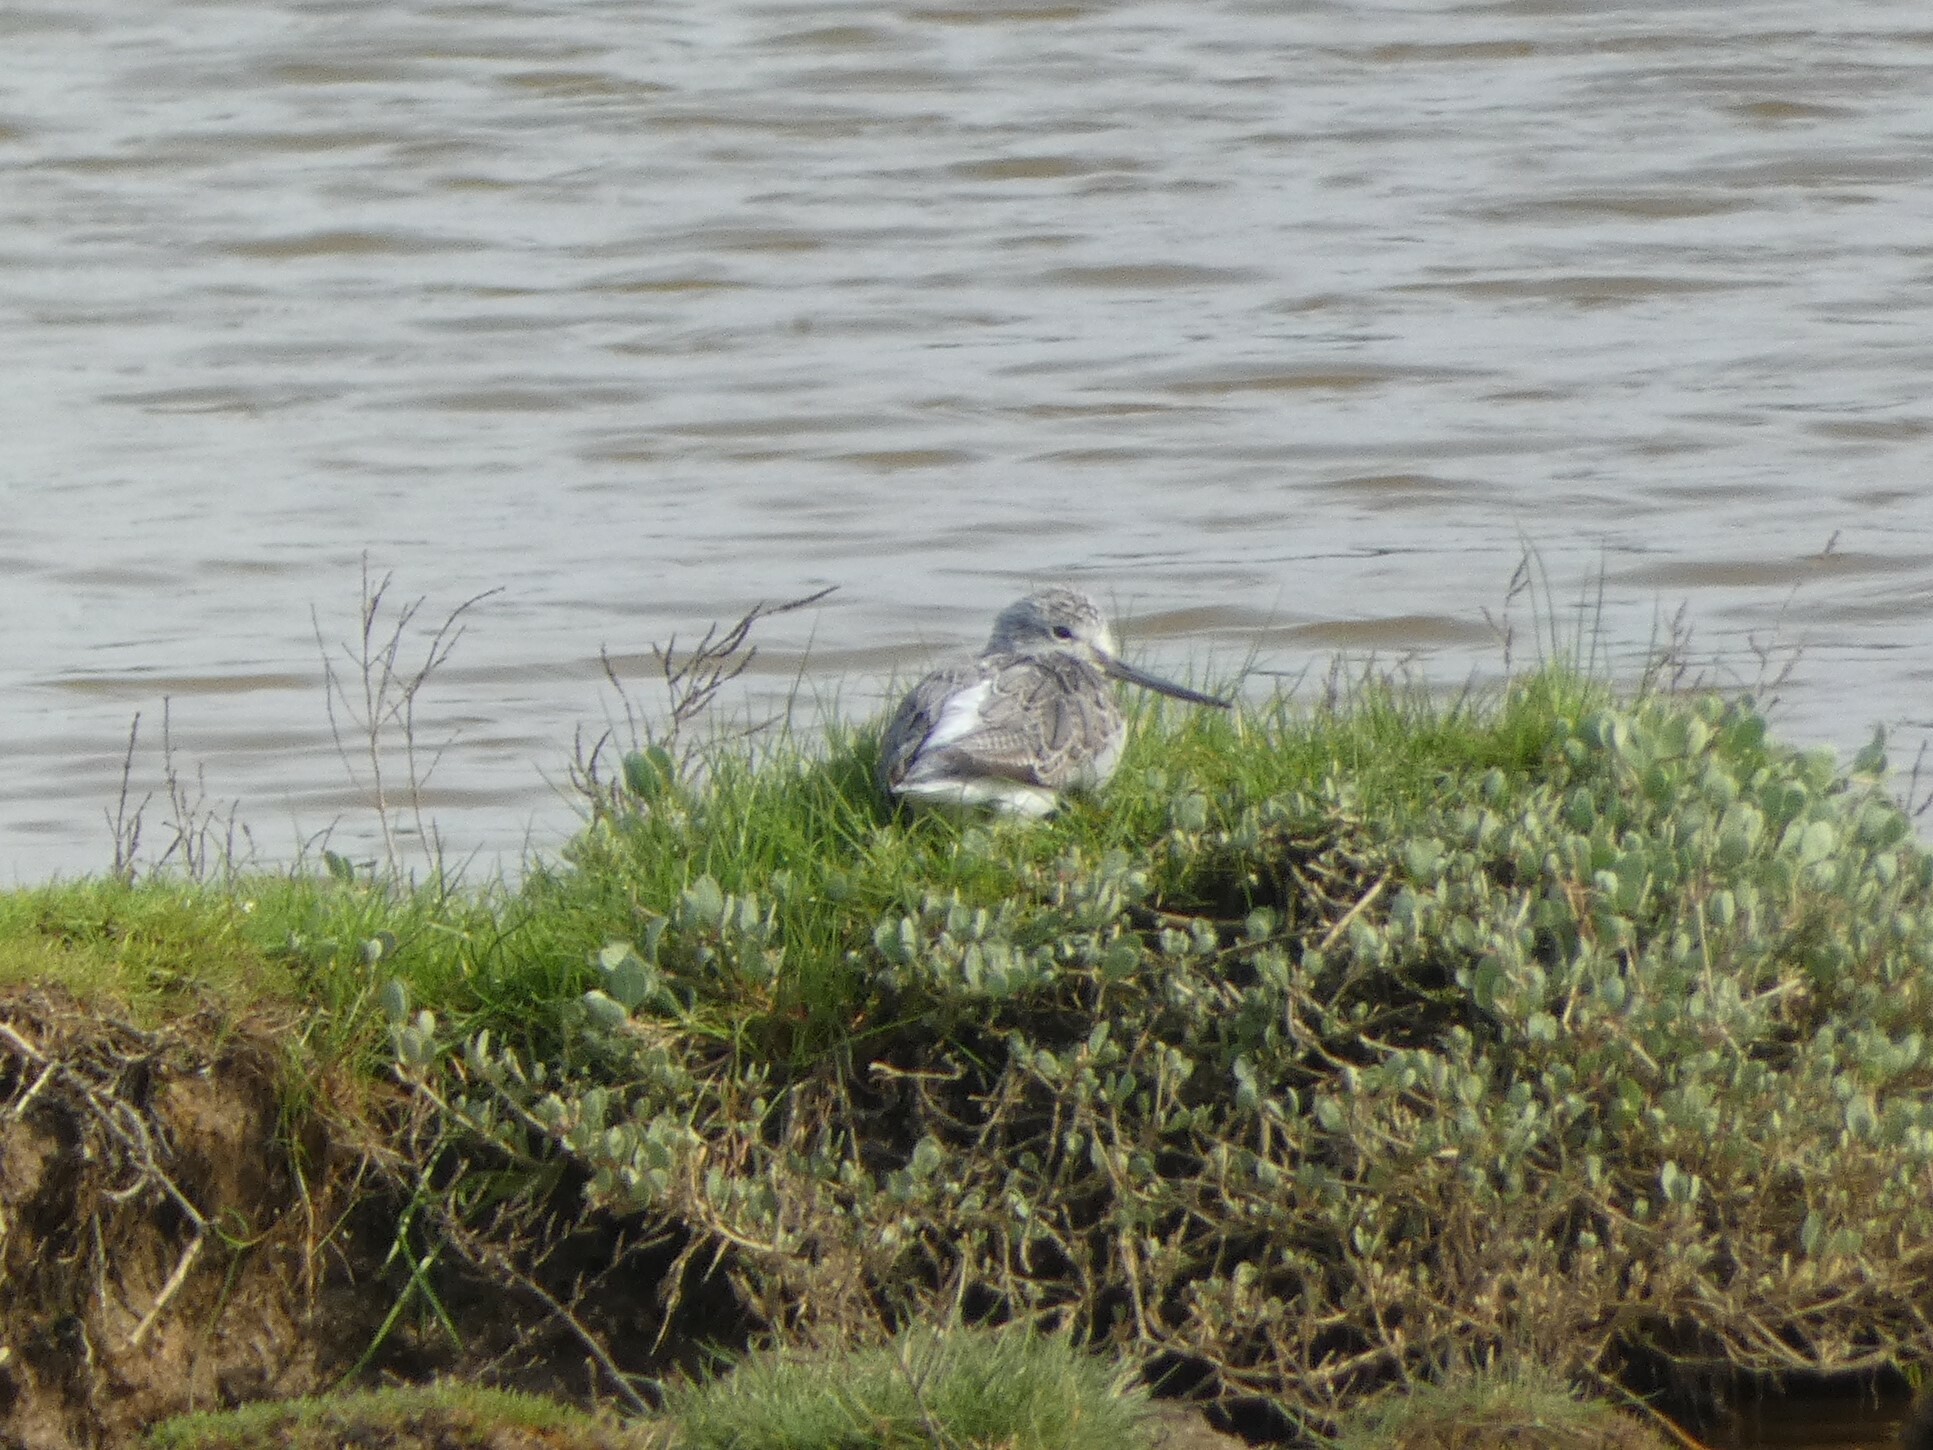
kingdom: Animalia
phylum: Chordata
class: Aves
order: Charadriiformes
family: Scolopacidae
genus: Tringa
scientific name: Tringa nebularia
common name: Common greenshank
